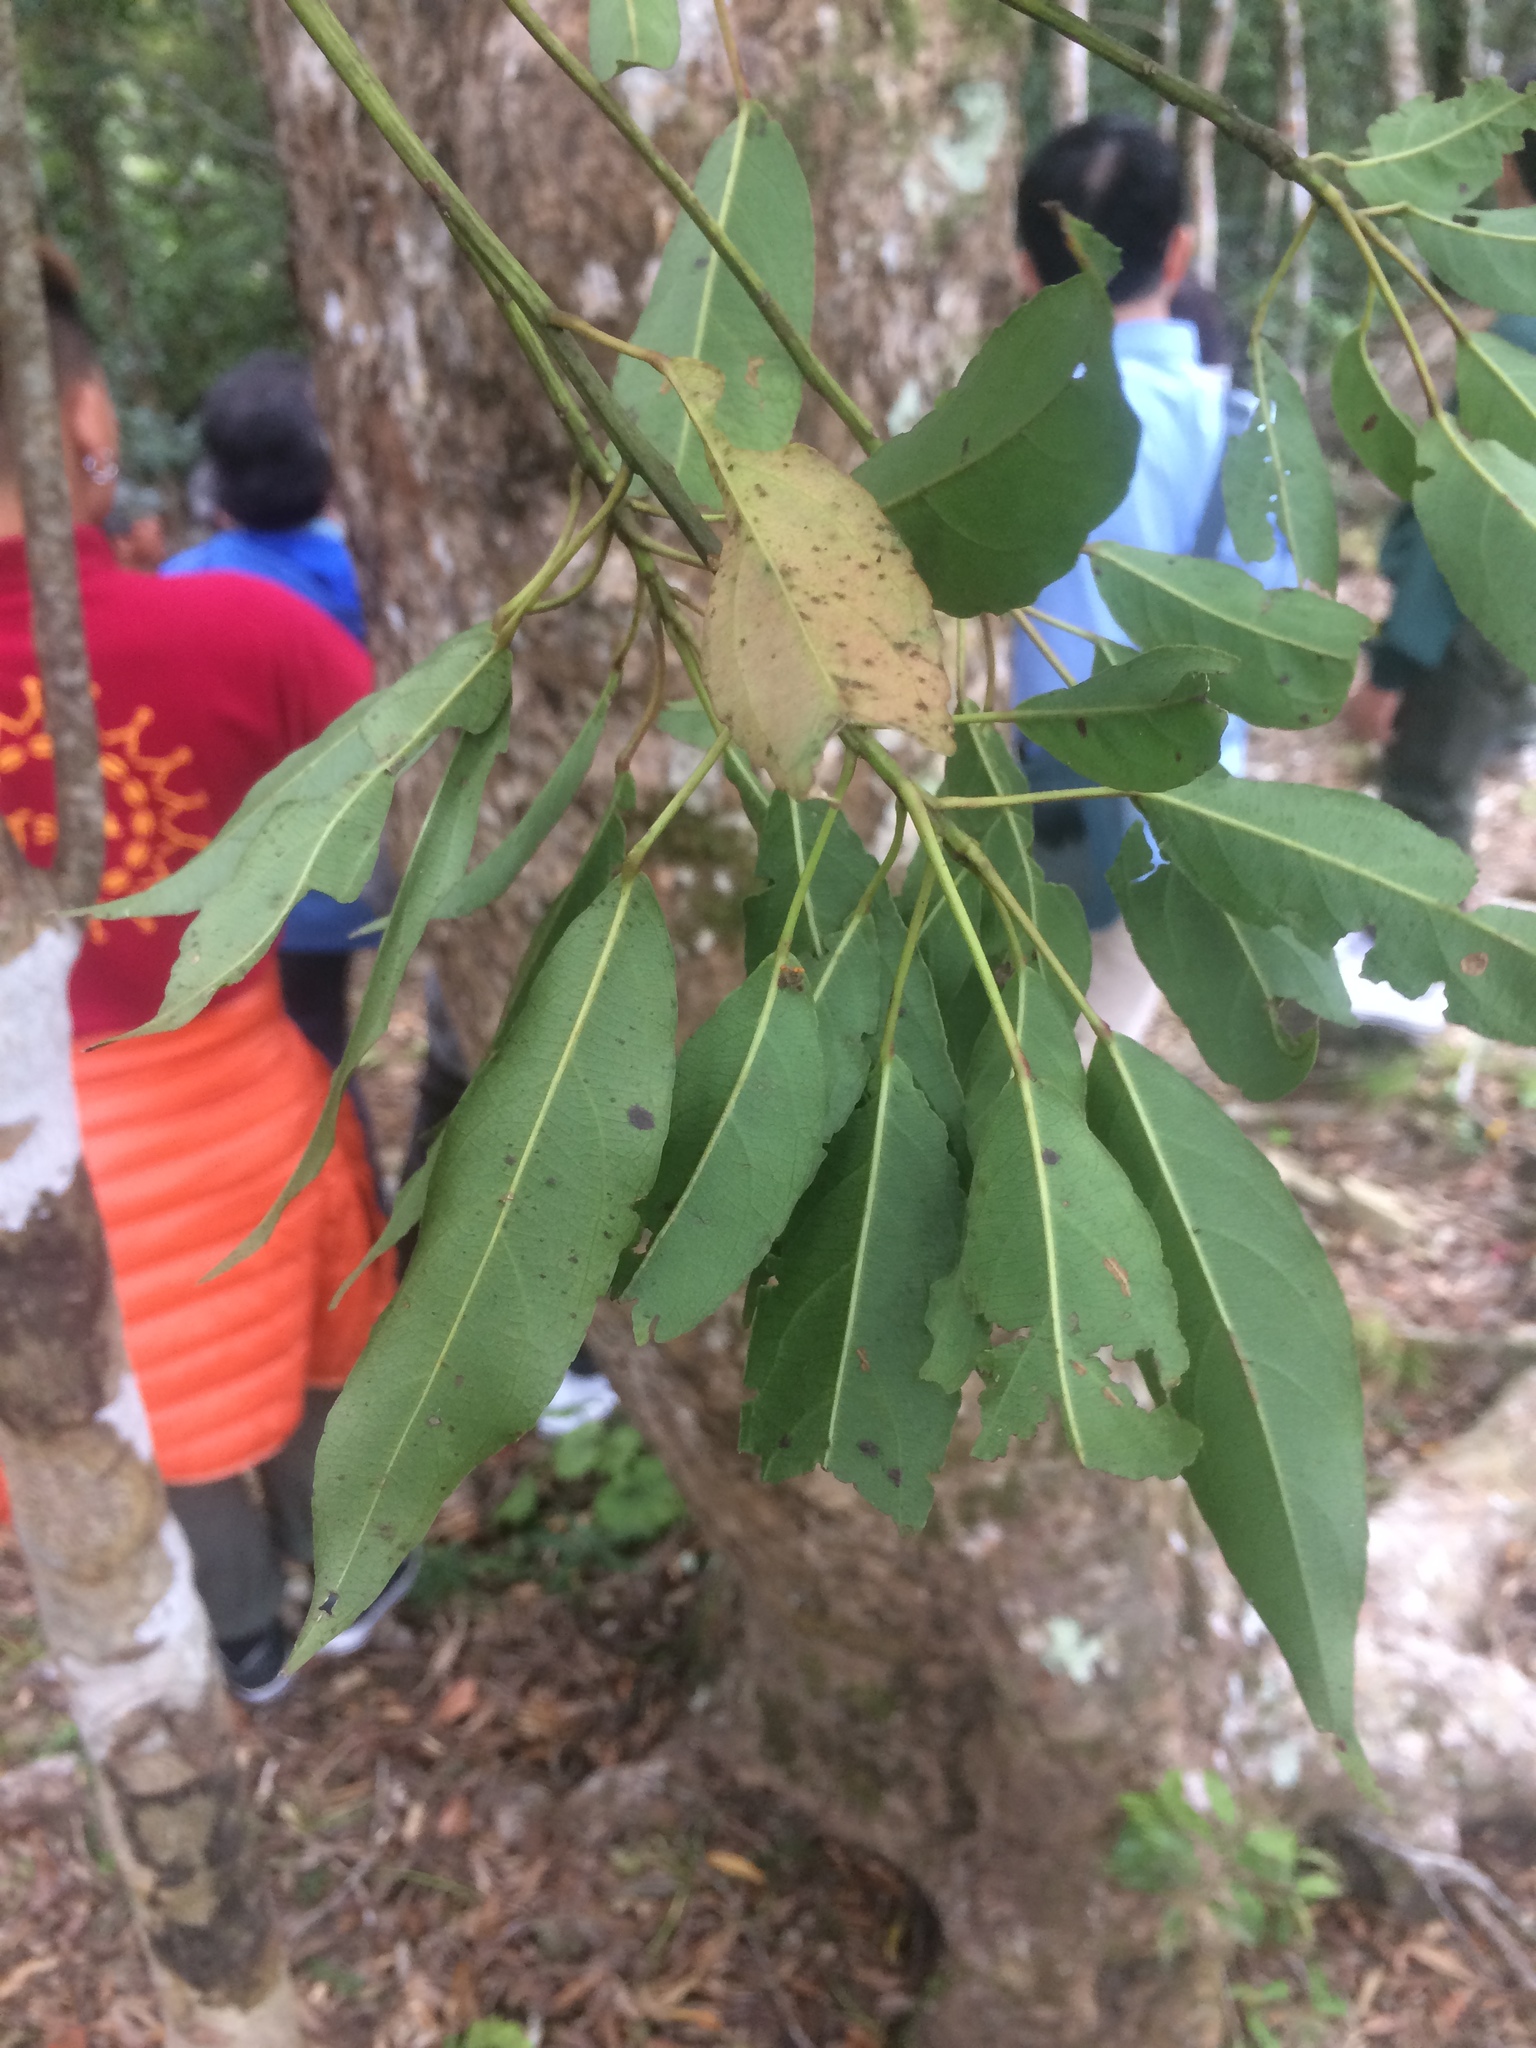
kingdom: Plantae
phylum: Tracheophyta
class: Magnoliopsida
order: Oxalidales
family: Elaeocarpaceae
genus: Elaeocarpus
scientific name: Elaeocarpus japonicus
